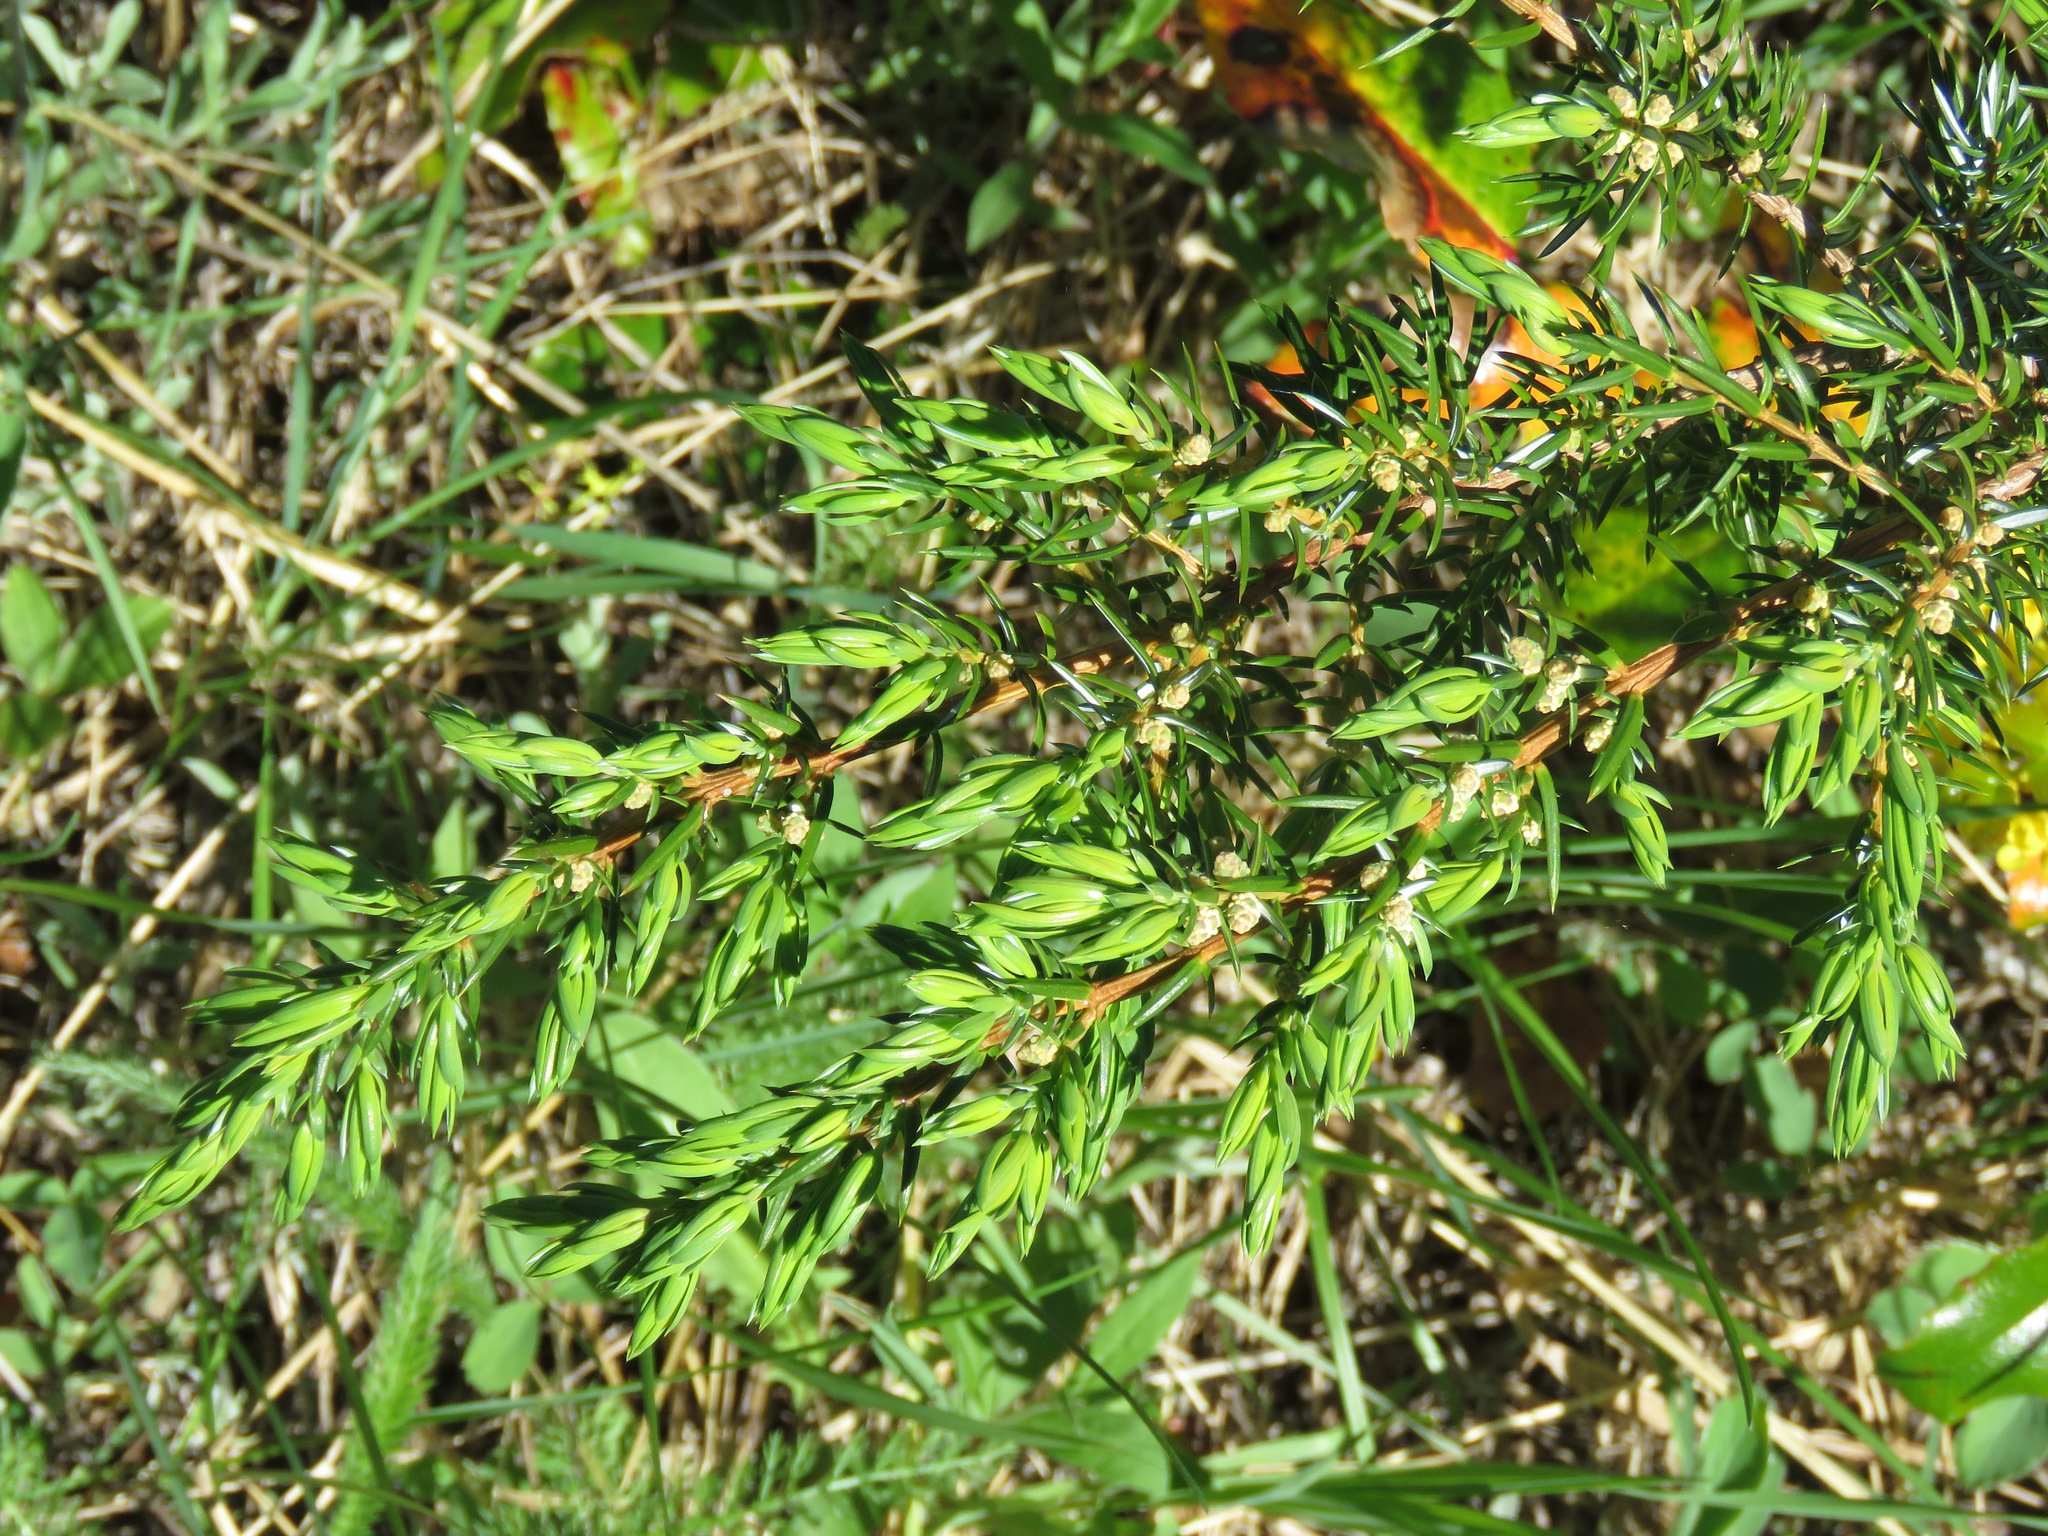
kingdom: Plantae
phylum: Tracheophyta
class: Pinopsida
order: Pinales
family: Cupressaceae
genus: Juniperus
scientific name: Juniperus communis
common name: Common juniper
